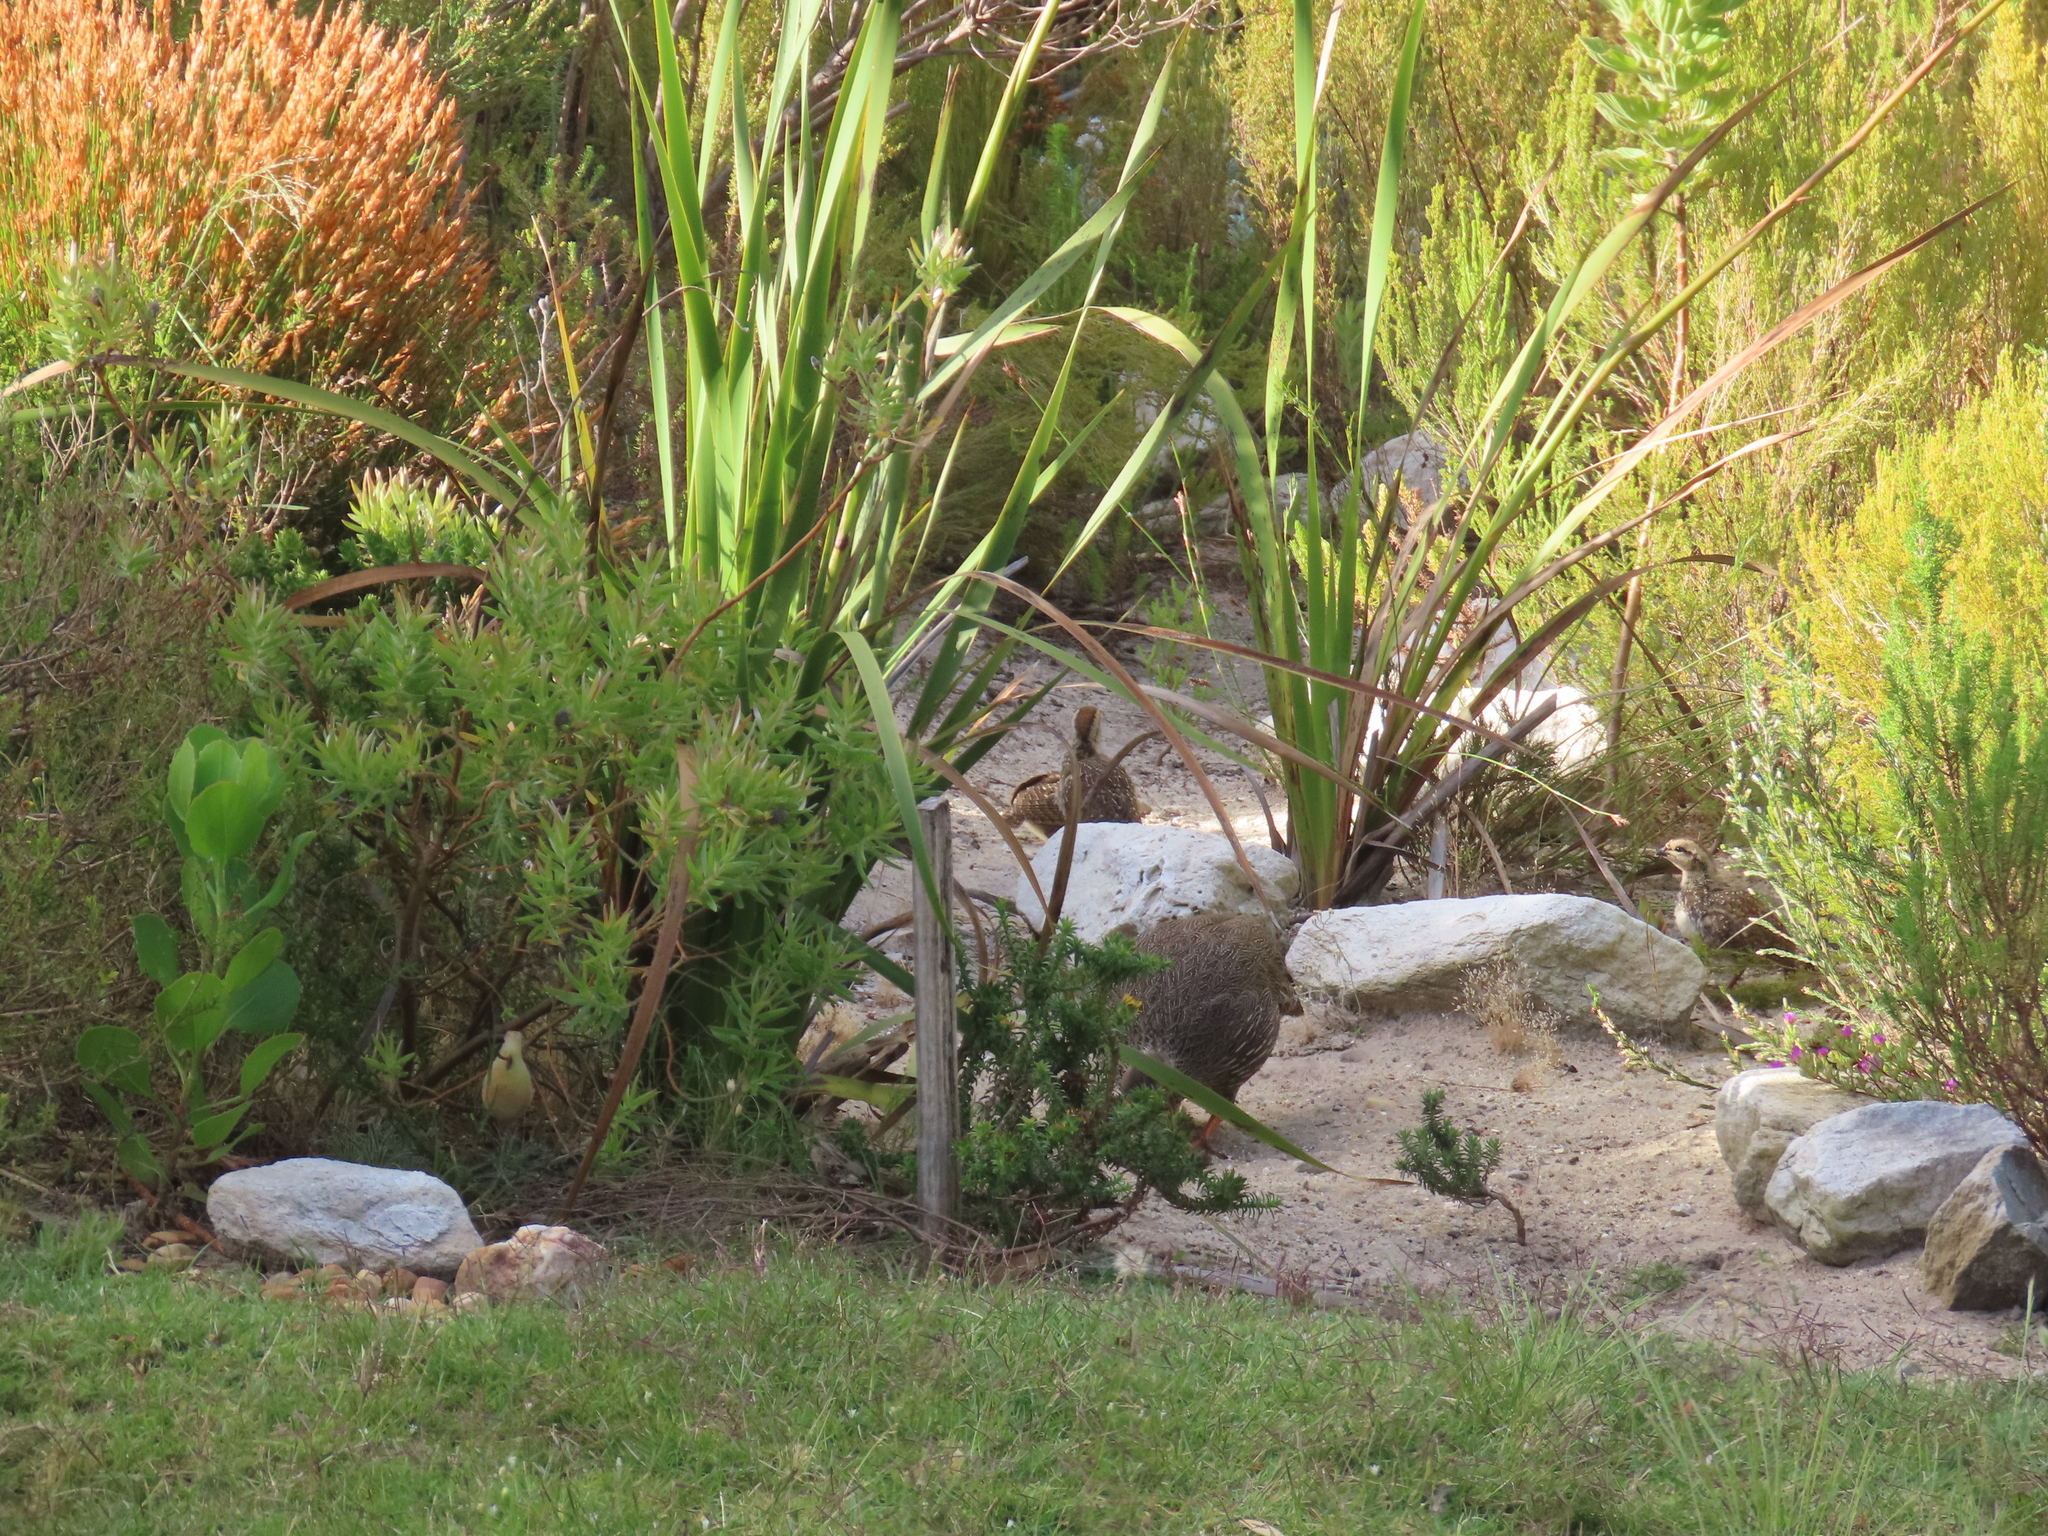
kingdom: Animalia
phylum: Chordata
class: Aves
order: Galliformes
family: Phasianidae
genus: Pternistis
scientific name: Pternistis capensis
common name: Cape spurfowl
